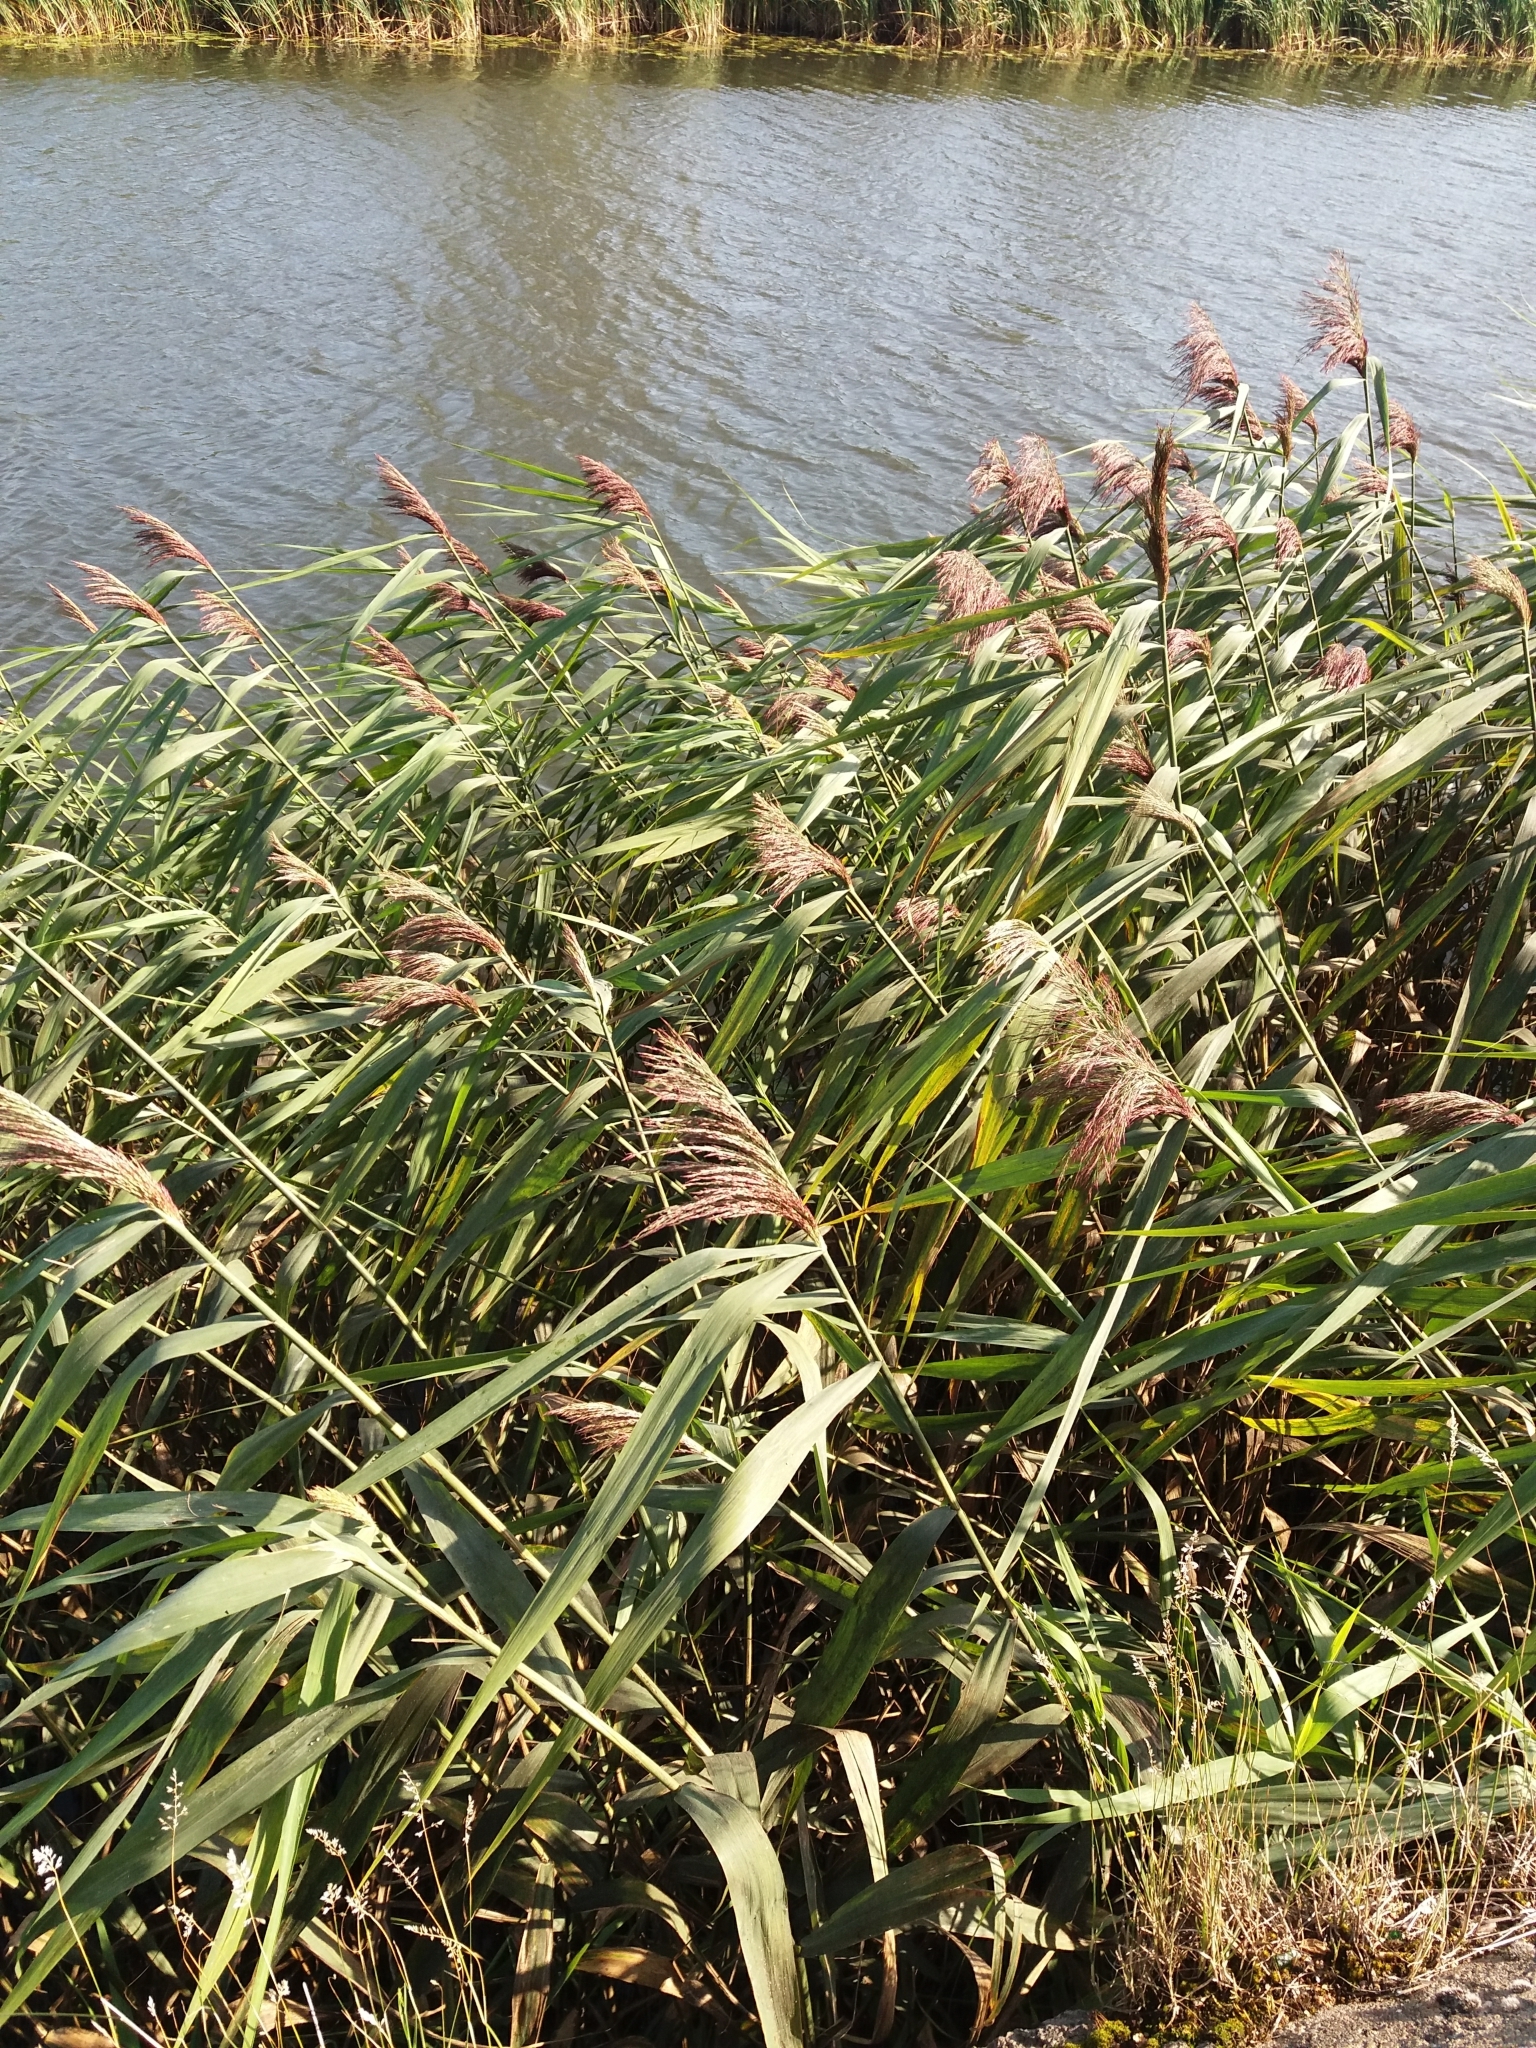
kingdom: Plantae
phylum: Tracheophyta
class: Liliopsida
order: Poales
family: Poaceae
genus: Phragmites
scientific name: Phragmites australis
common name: Common reed
